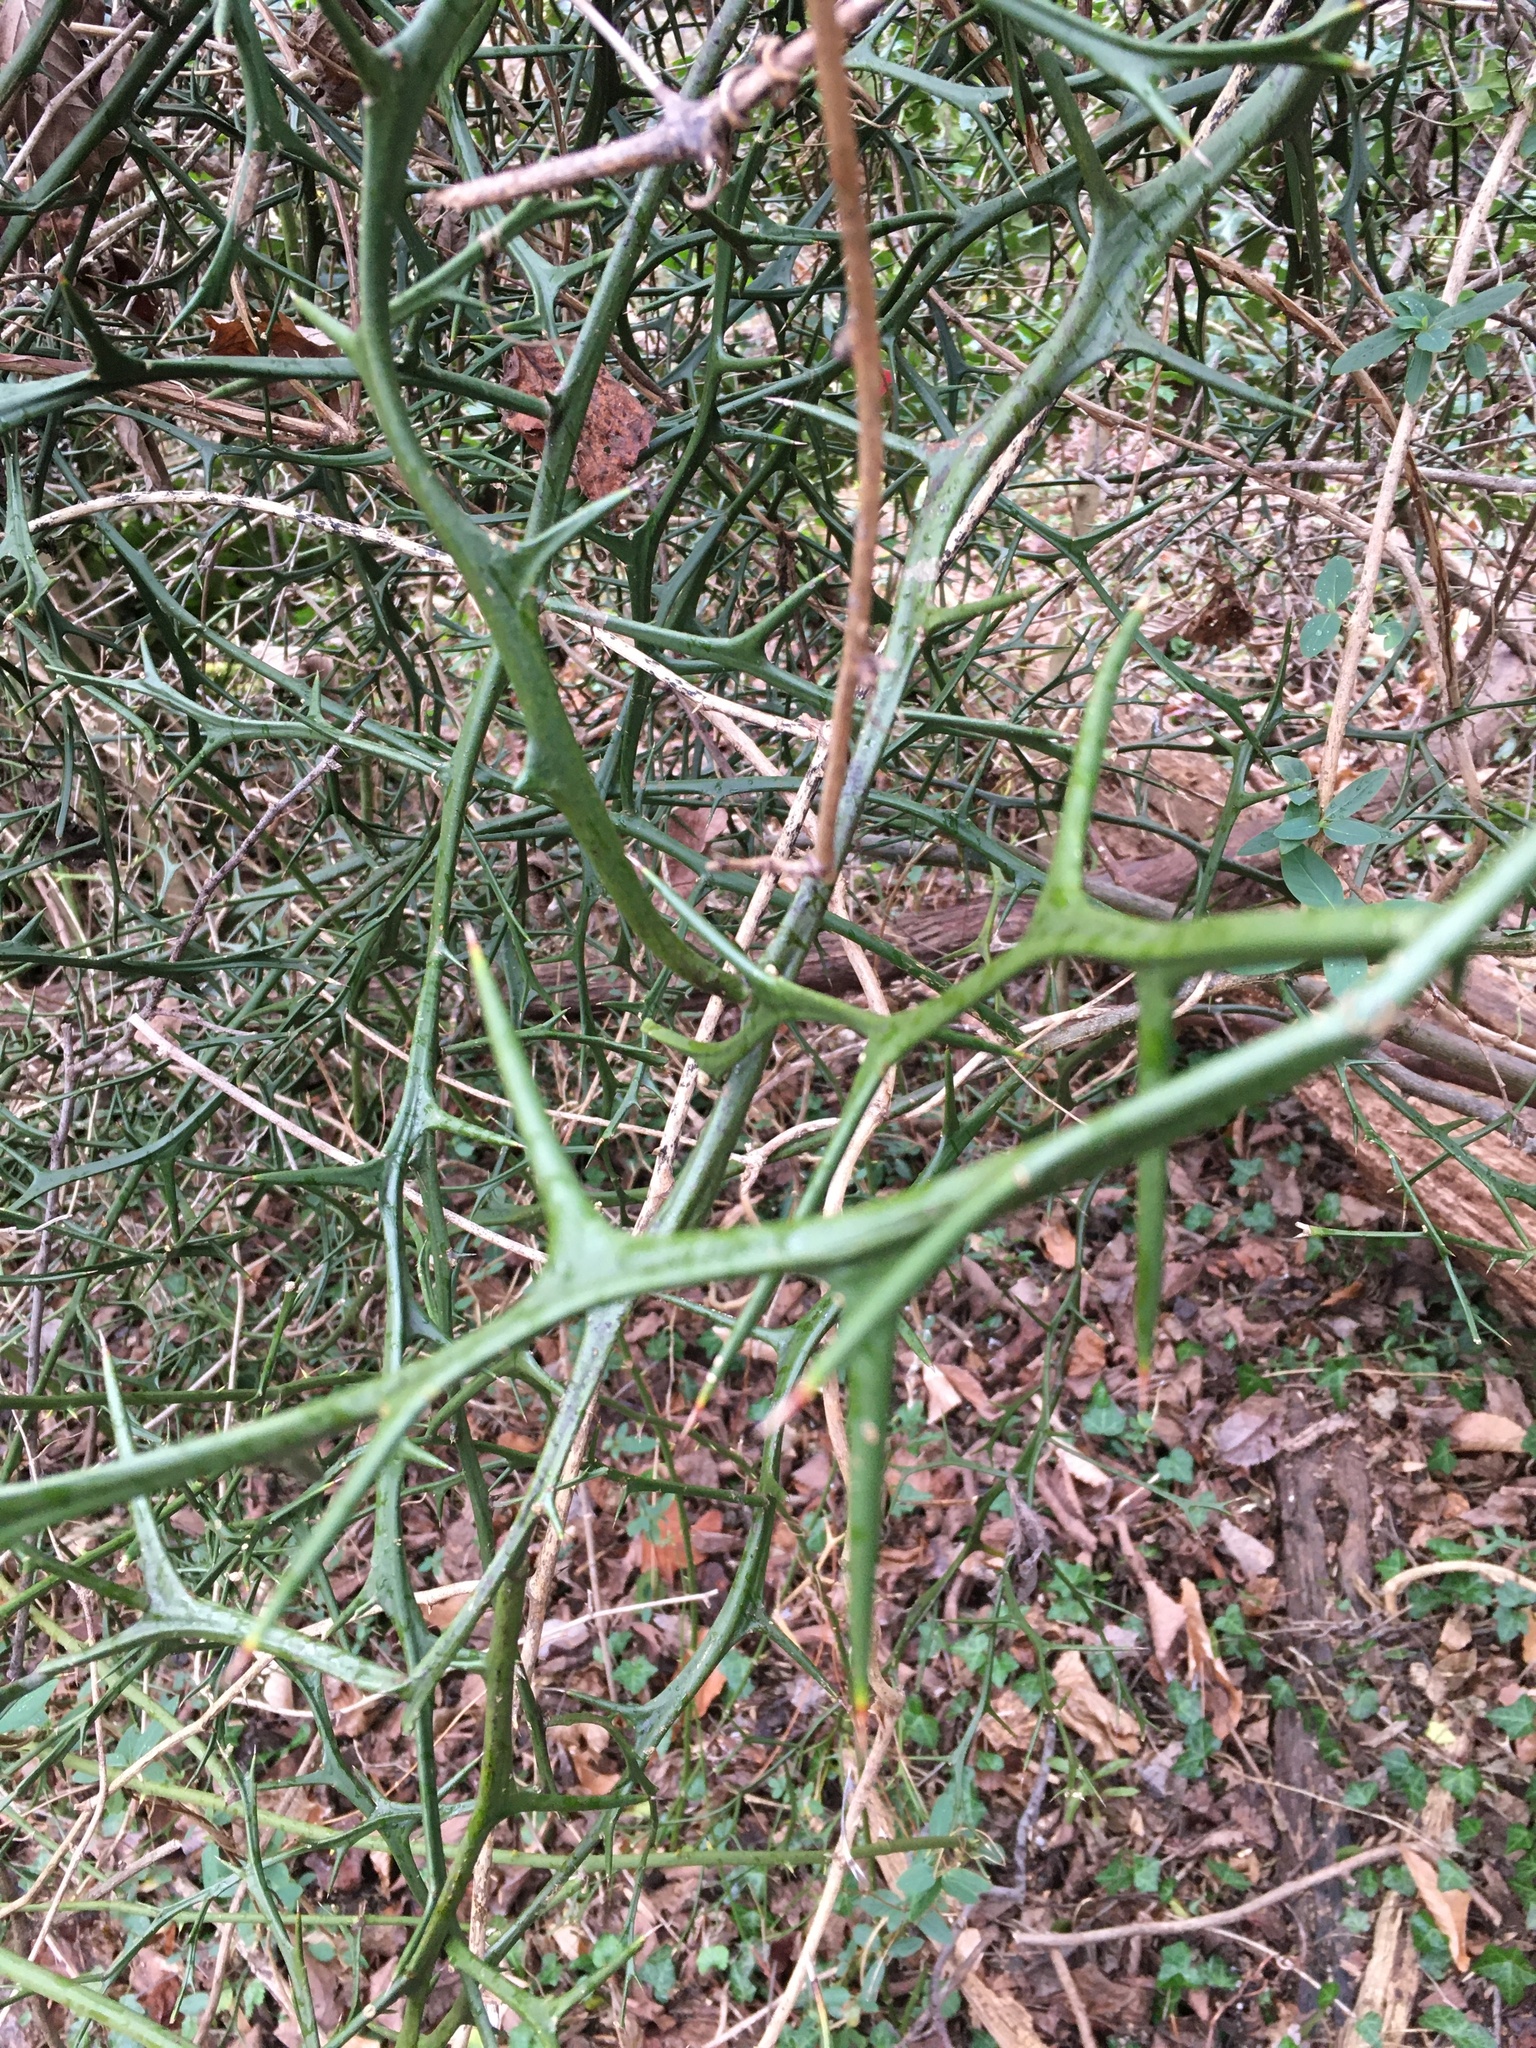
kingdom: Plantae
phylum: Tracheophyta
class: Magnoliopsida
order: Sapindales
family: Rutaceae
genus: Citrus
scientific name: Citrus trifoliata
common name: Japanese bitter-orange
